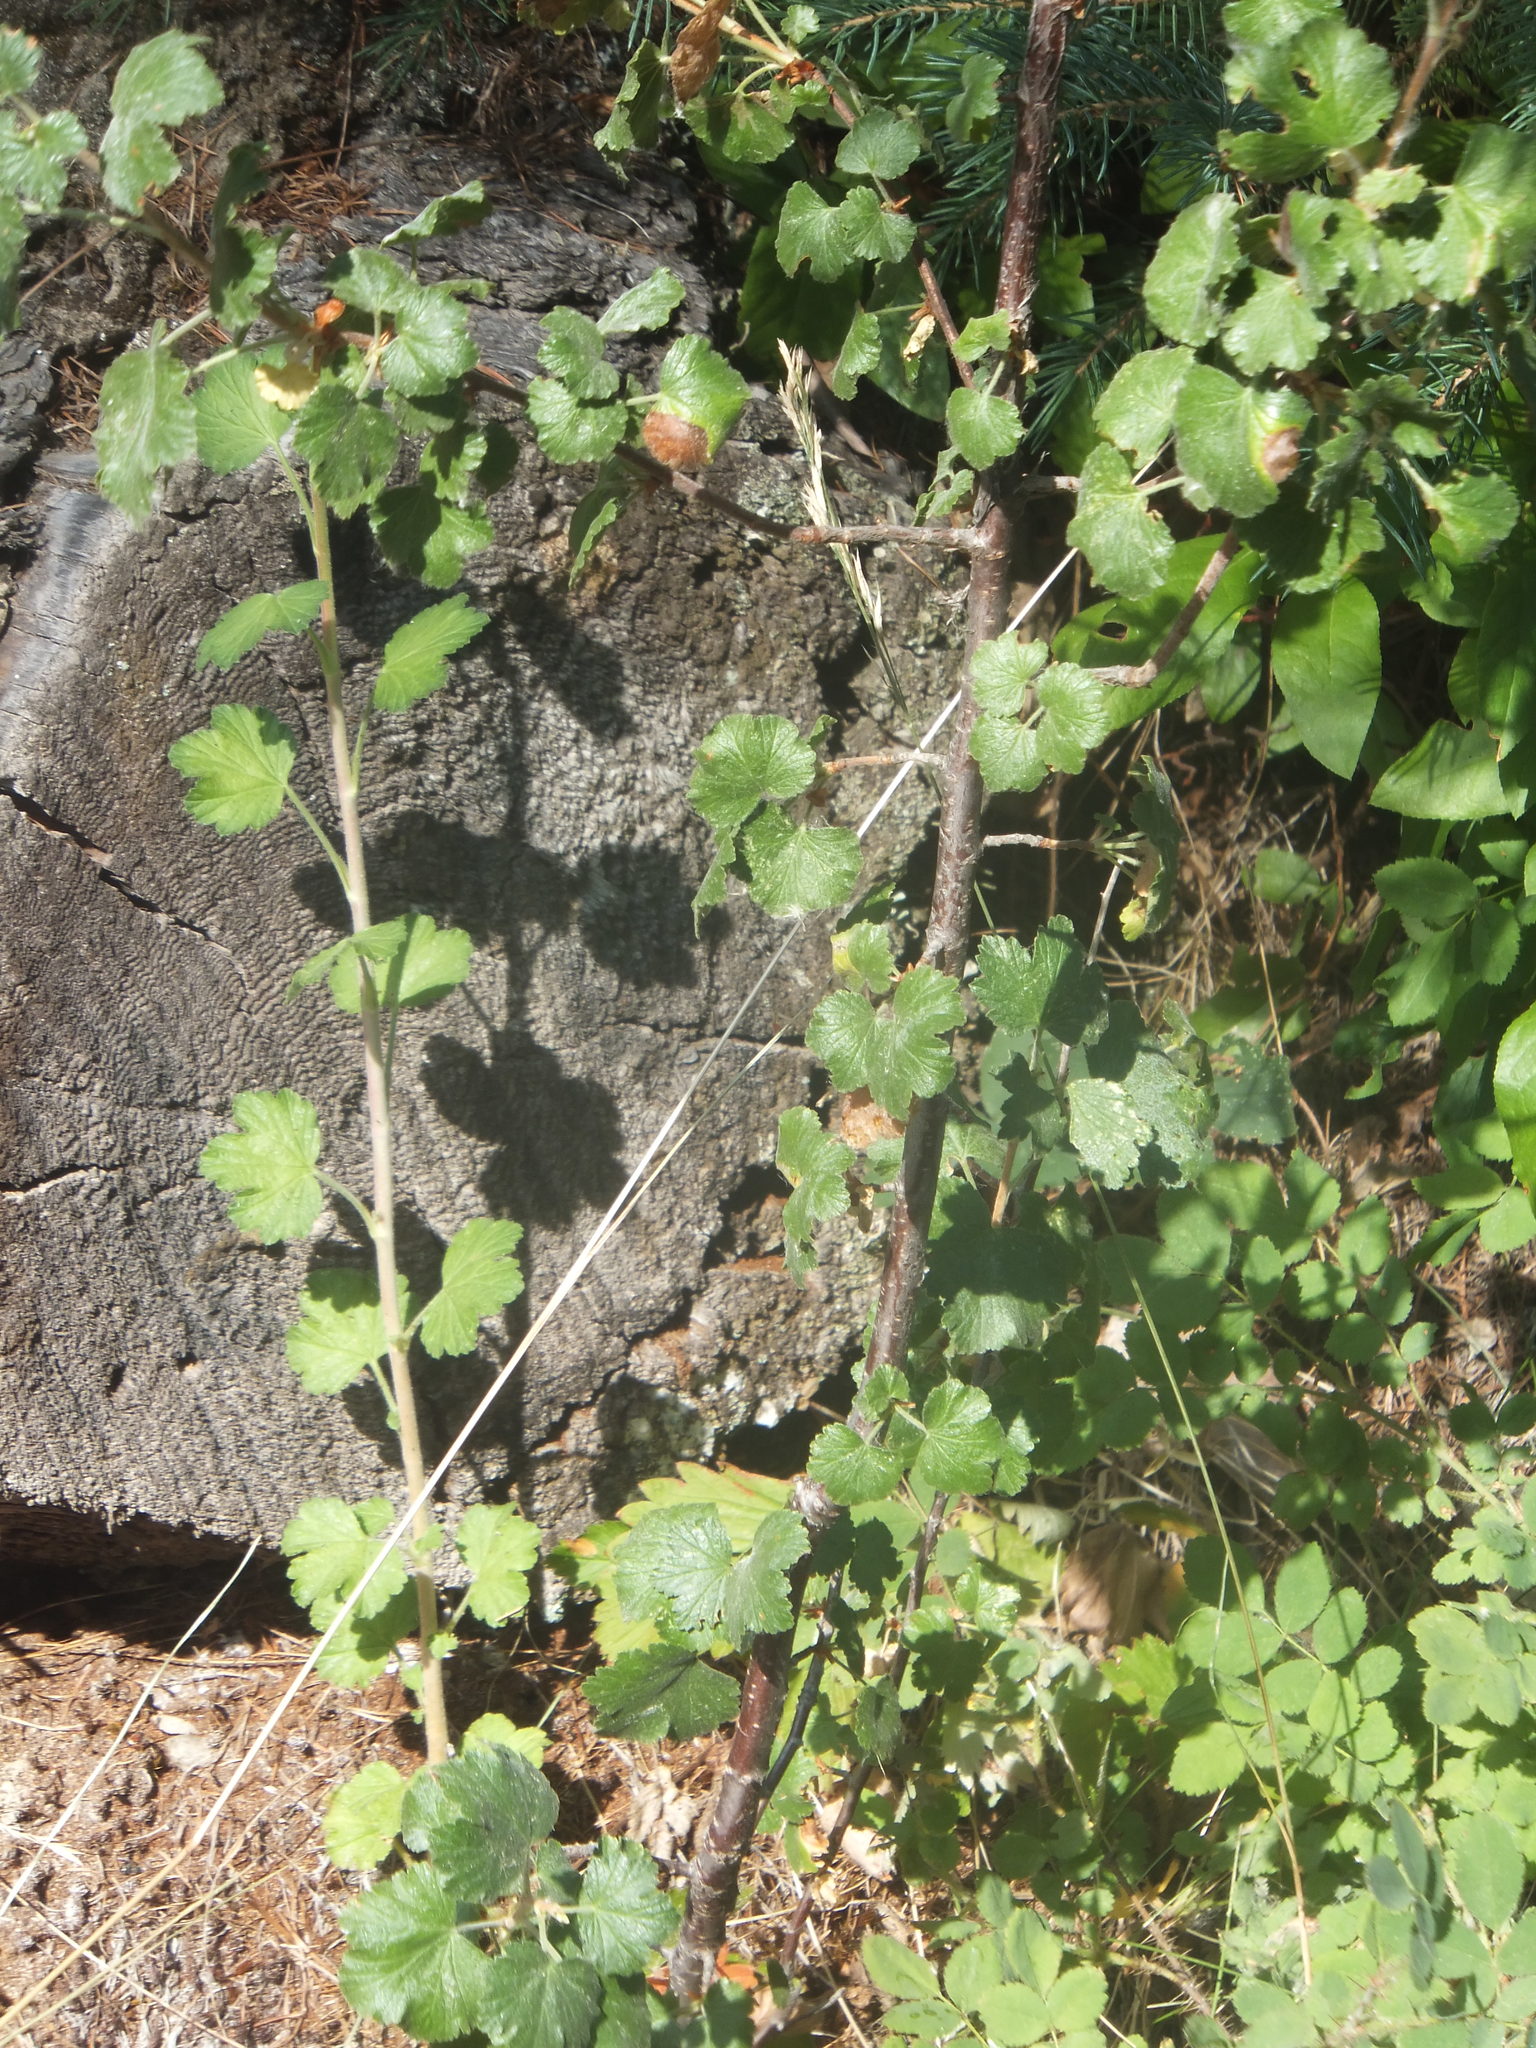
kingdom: Plantae
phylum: Tracheophyta
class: Magnoliopsida
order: Saxifragales
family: Grossulariaceae
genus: Ribes
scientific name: Ribes cereum
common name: Wax currant
